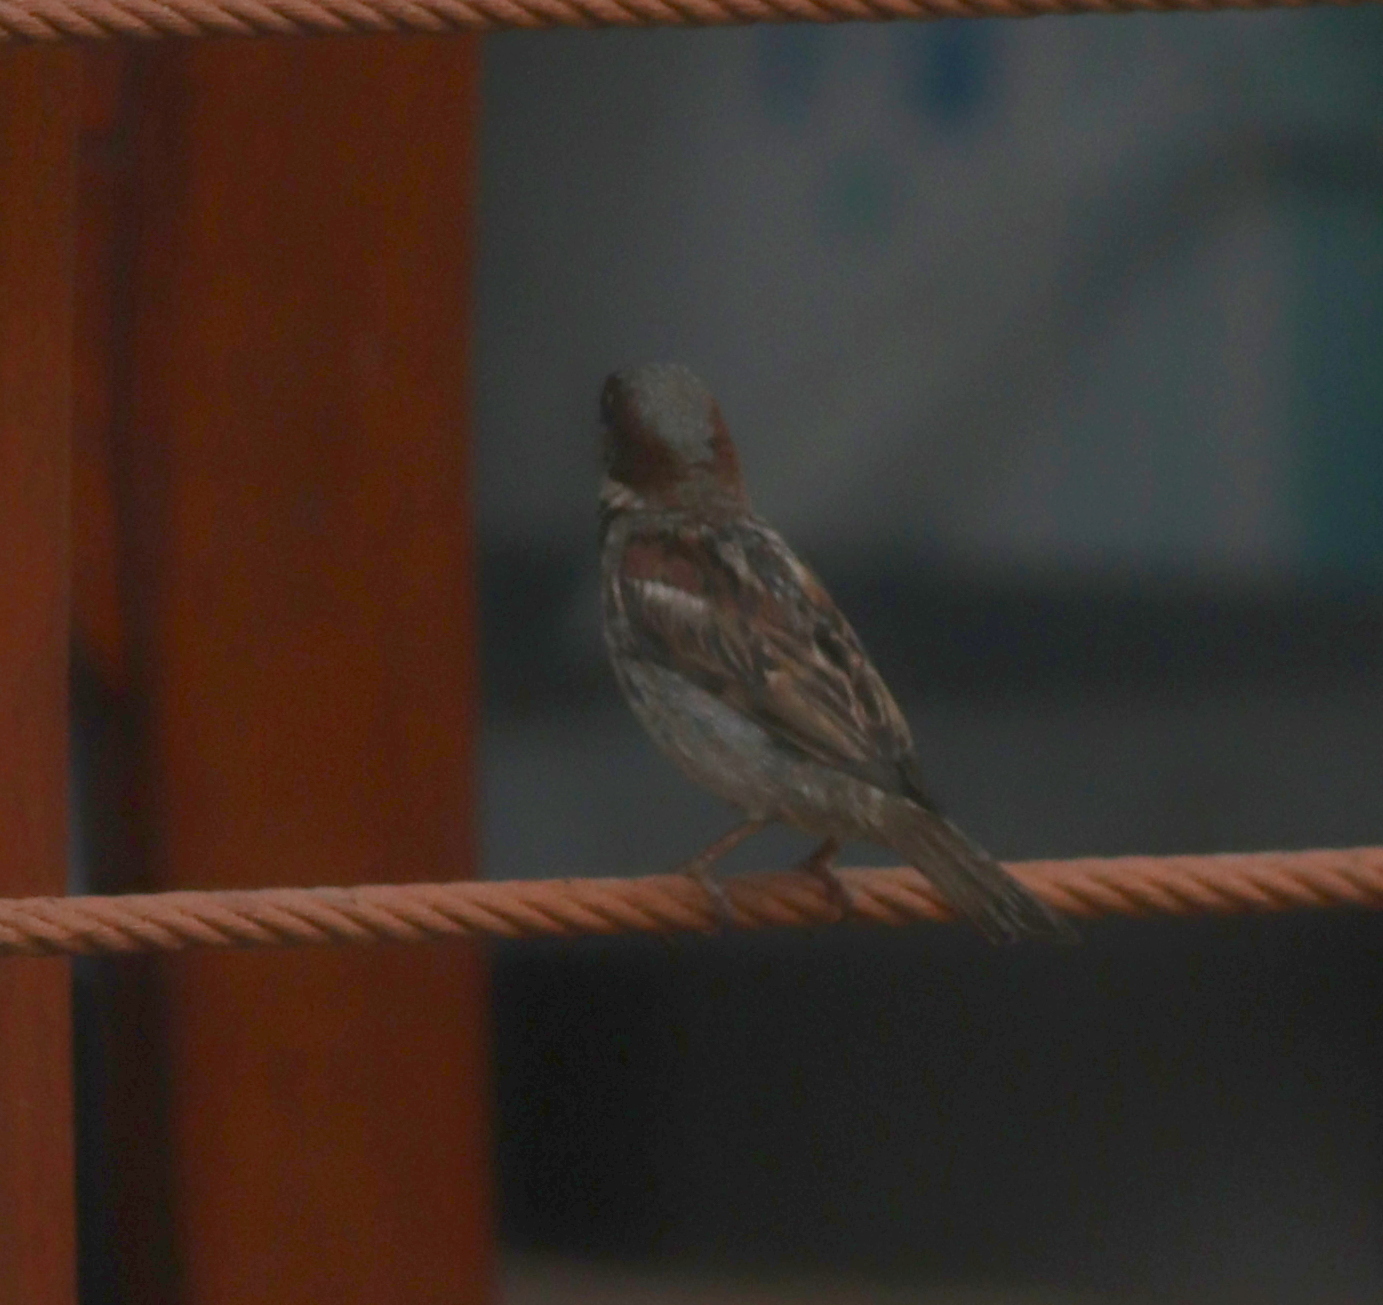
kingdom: Animalia
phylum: Chordata
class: Aves
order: Passeriformes
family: Passeridae
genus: Passer
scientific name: Passer domesticus
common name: House sparrow
